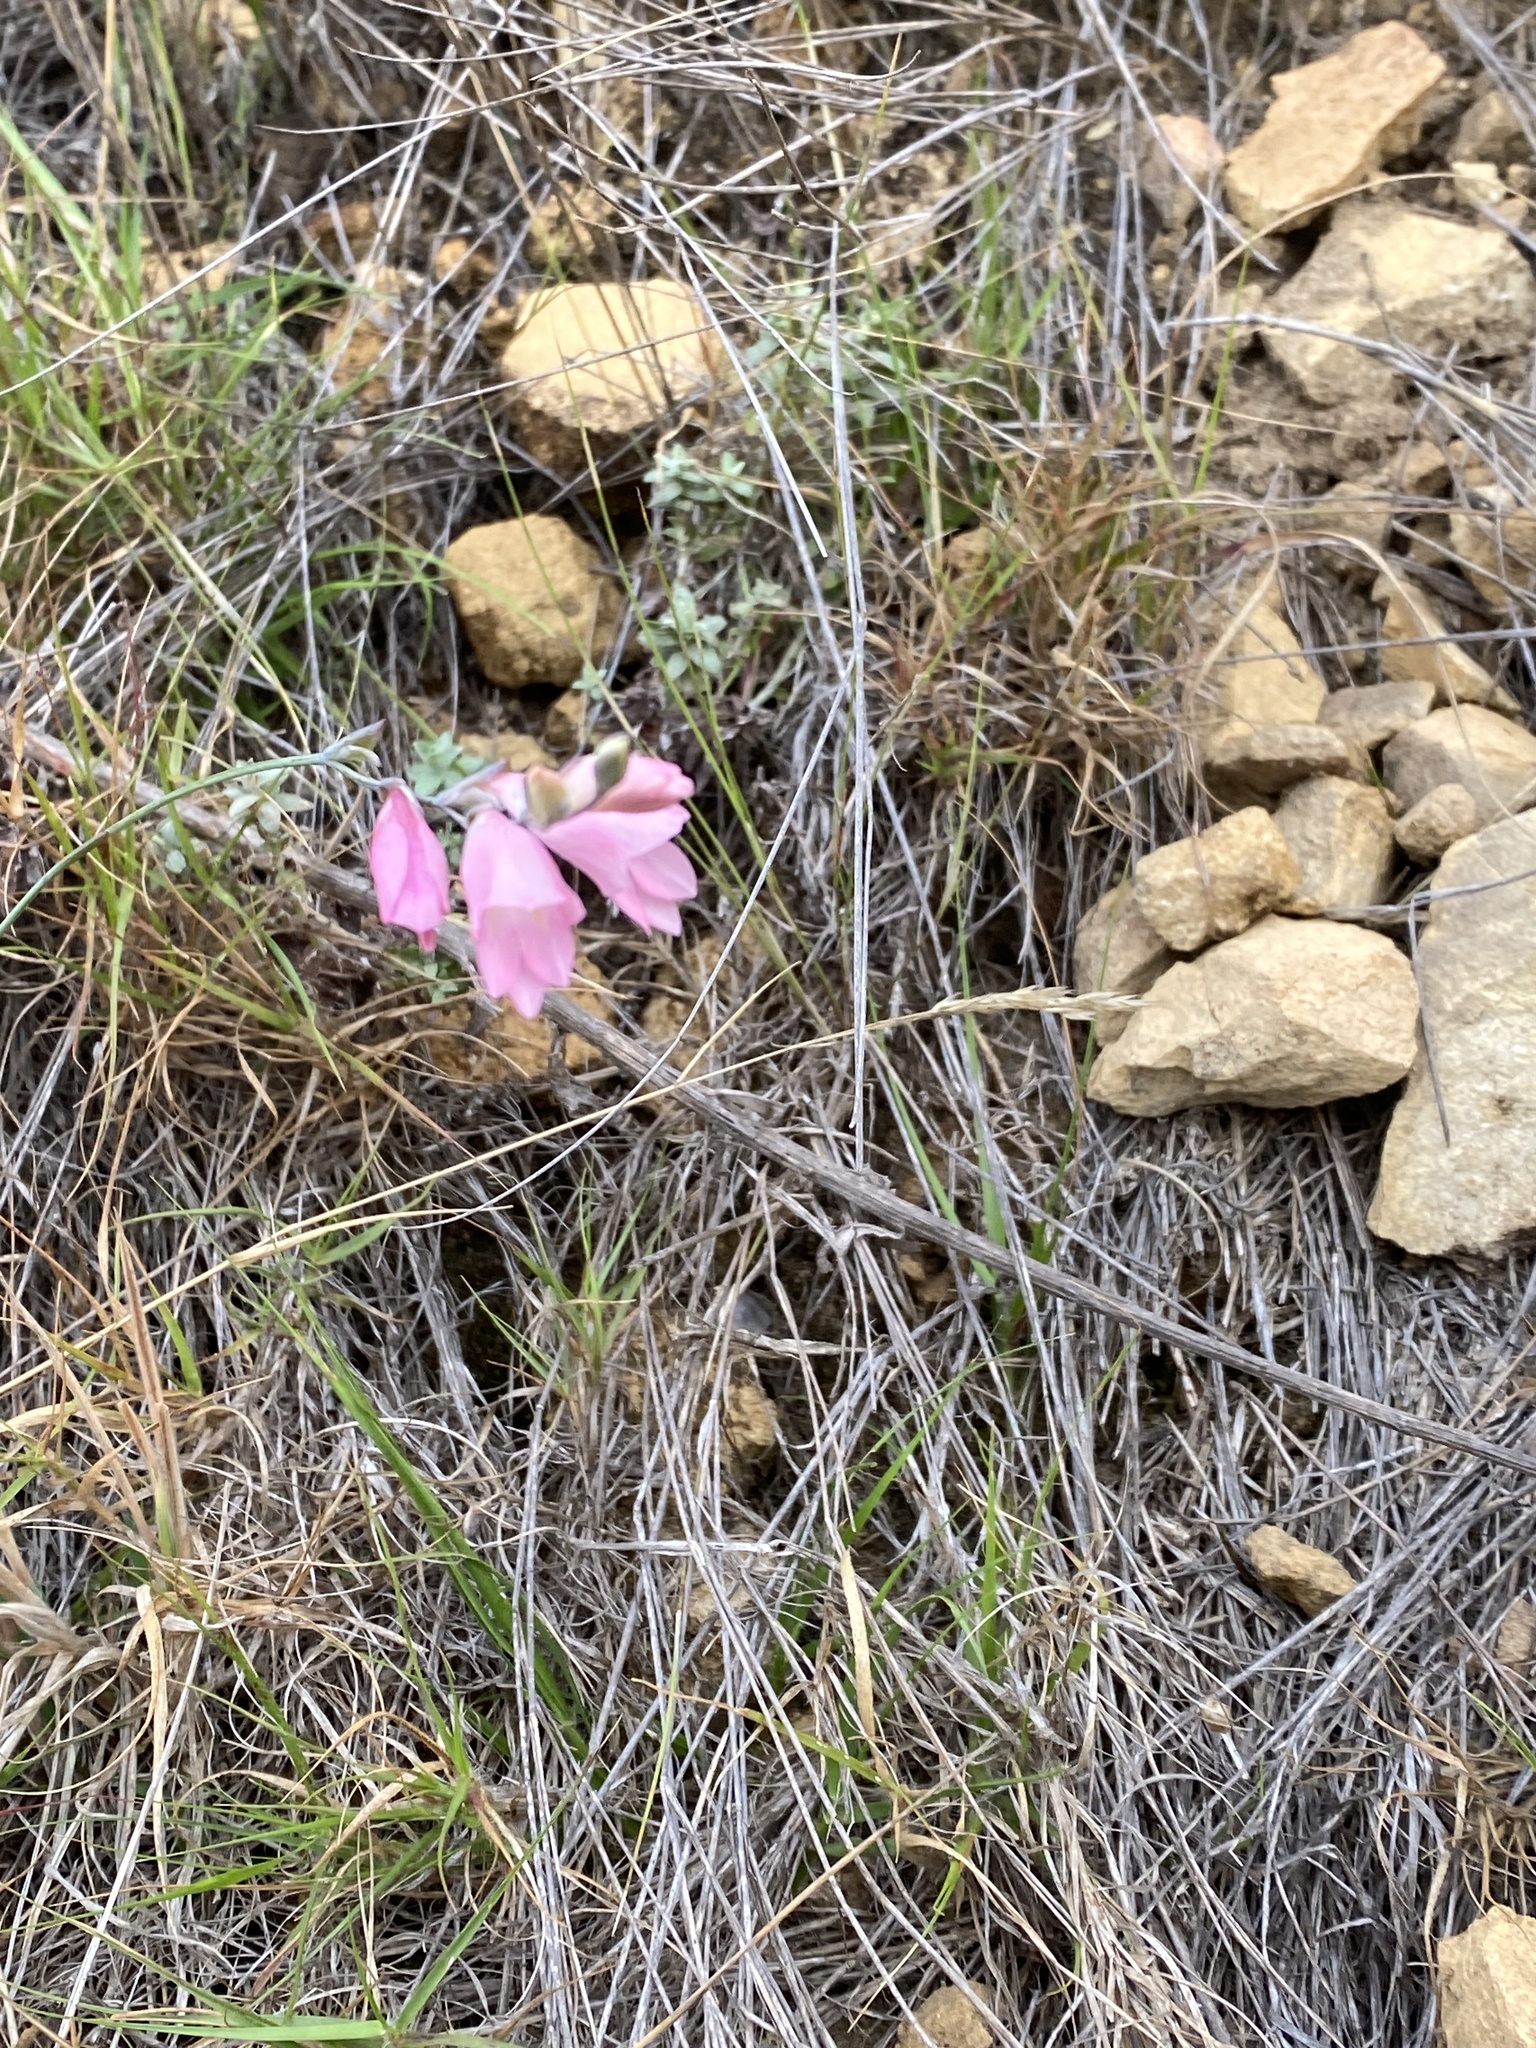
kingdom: Plantae
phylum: Tracheophyta
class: Liliopsida
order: Asparagales
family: Iridaceae
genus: Gladiolus
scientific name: Gladiolus brevifolius
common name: March pypie
